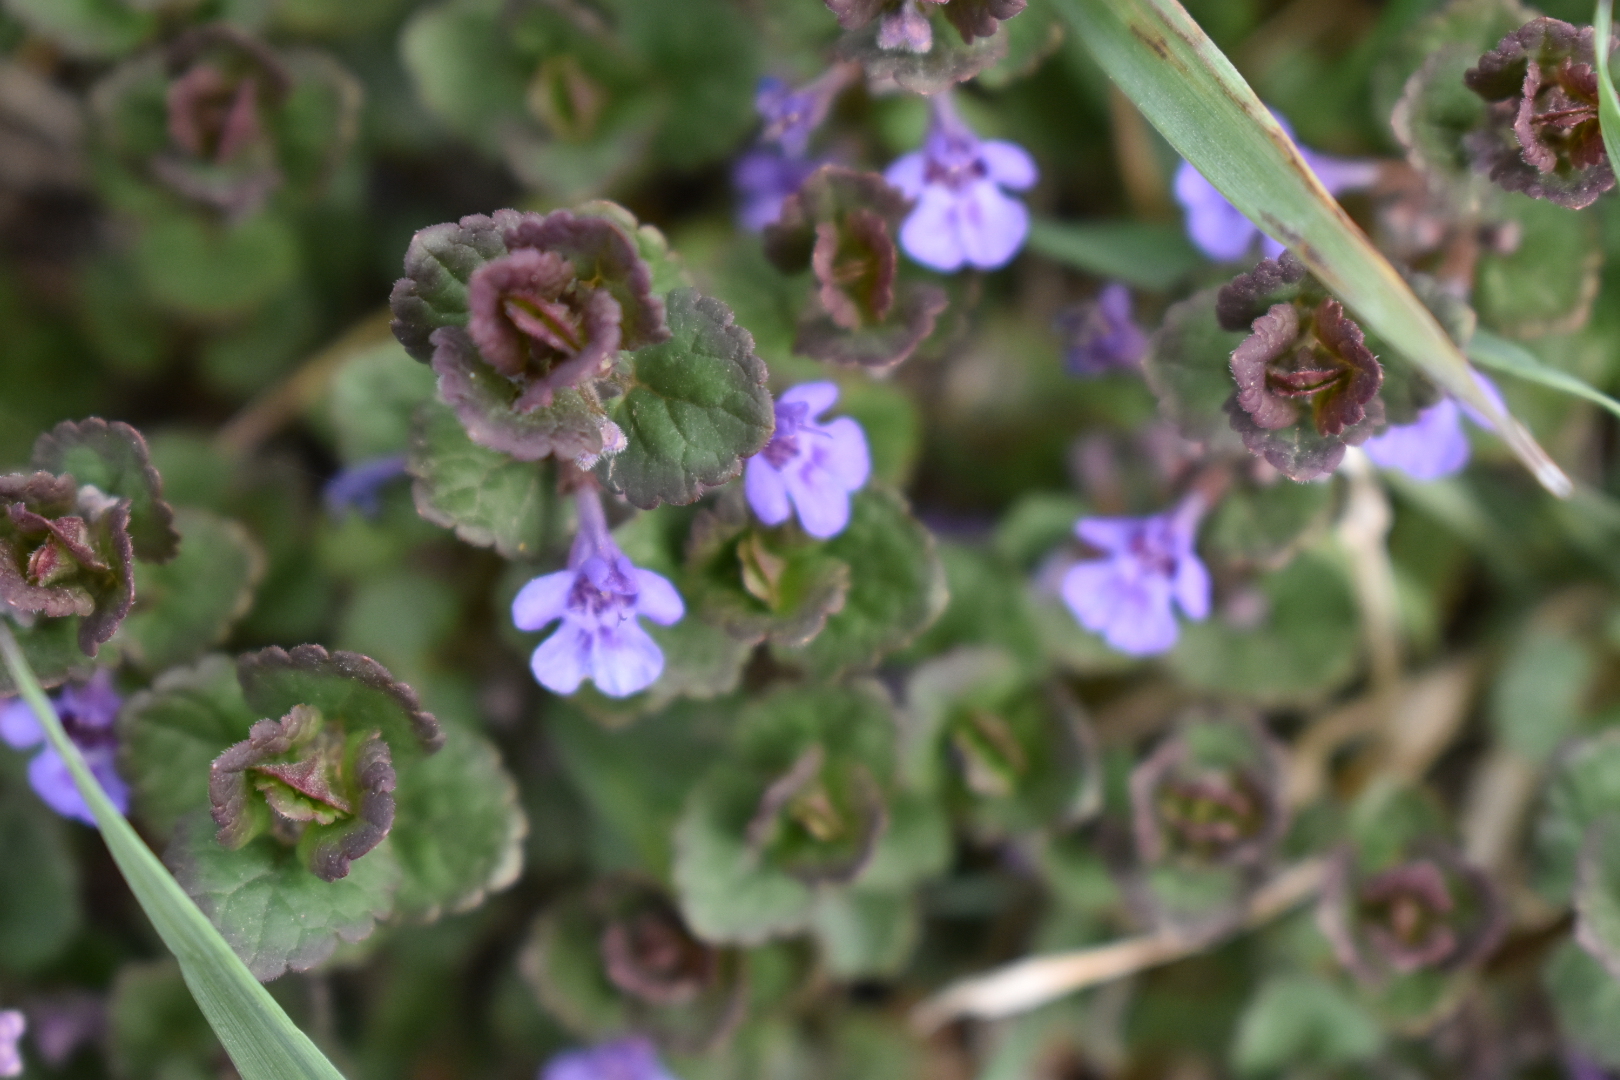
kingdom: Plantae
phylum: Tracheophyta
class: Magnoliopsida
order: Lamiales
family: Lamiaceae
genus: Glechoma
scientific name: Glechoma hederacea
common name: Ground ivy
